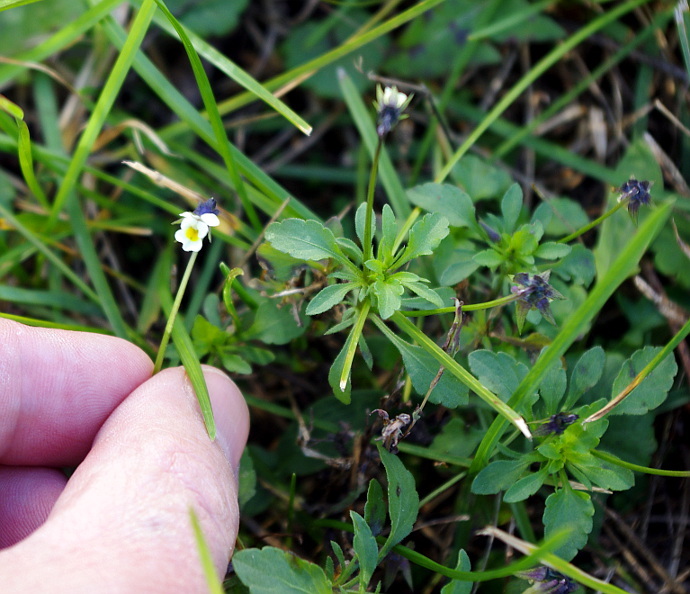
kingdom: Plantae
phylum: Tracheophyta
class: Magnoliopsida
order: Malpighiales
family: Violaceae
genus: Viola
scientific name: Viola arvensis
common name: Field pansy
